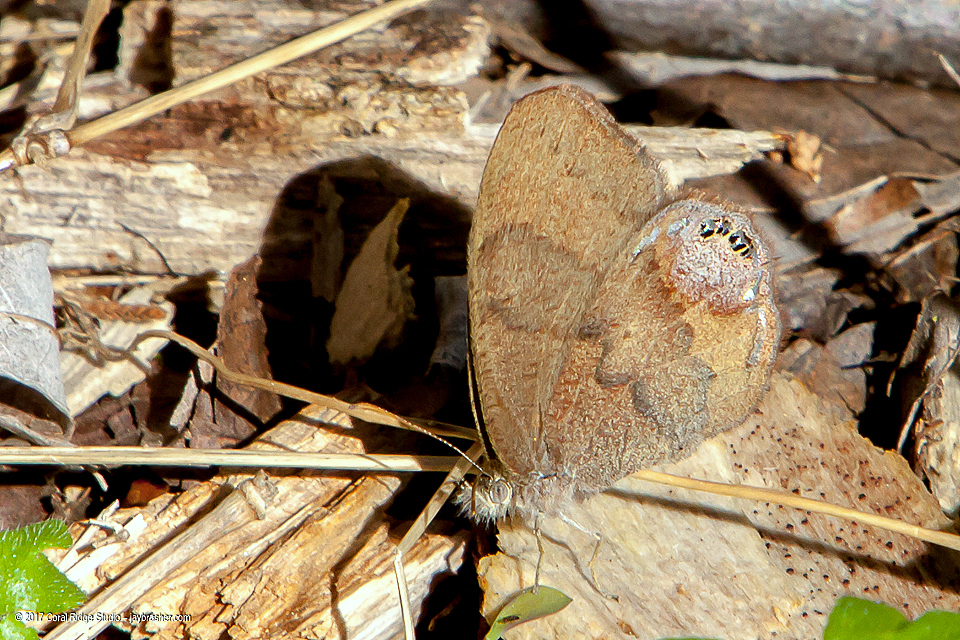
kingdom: Animalia
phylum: Arthropoda
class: Insecta
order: Lepidoptera
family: Nymphalidae
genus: Euptychia
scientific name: Euptychia cornelius
